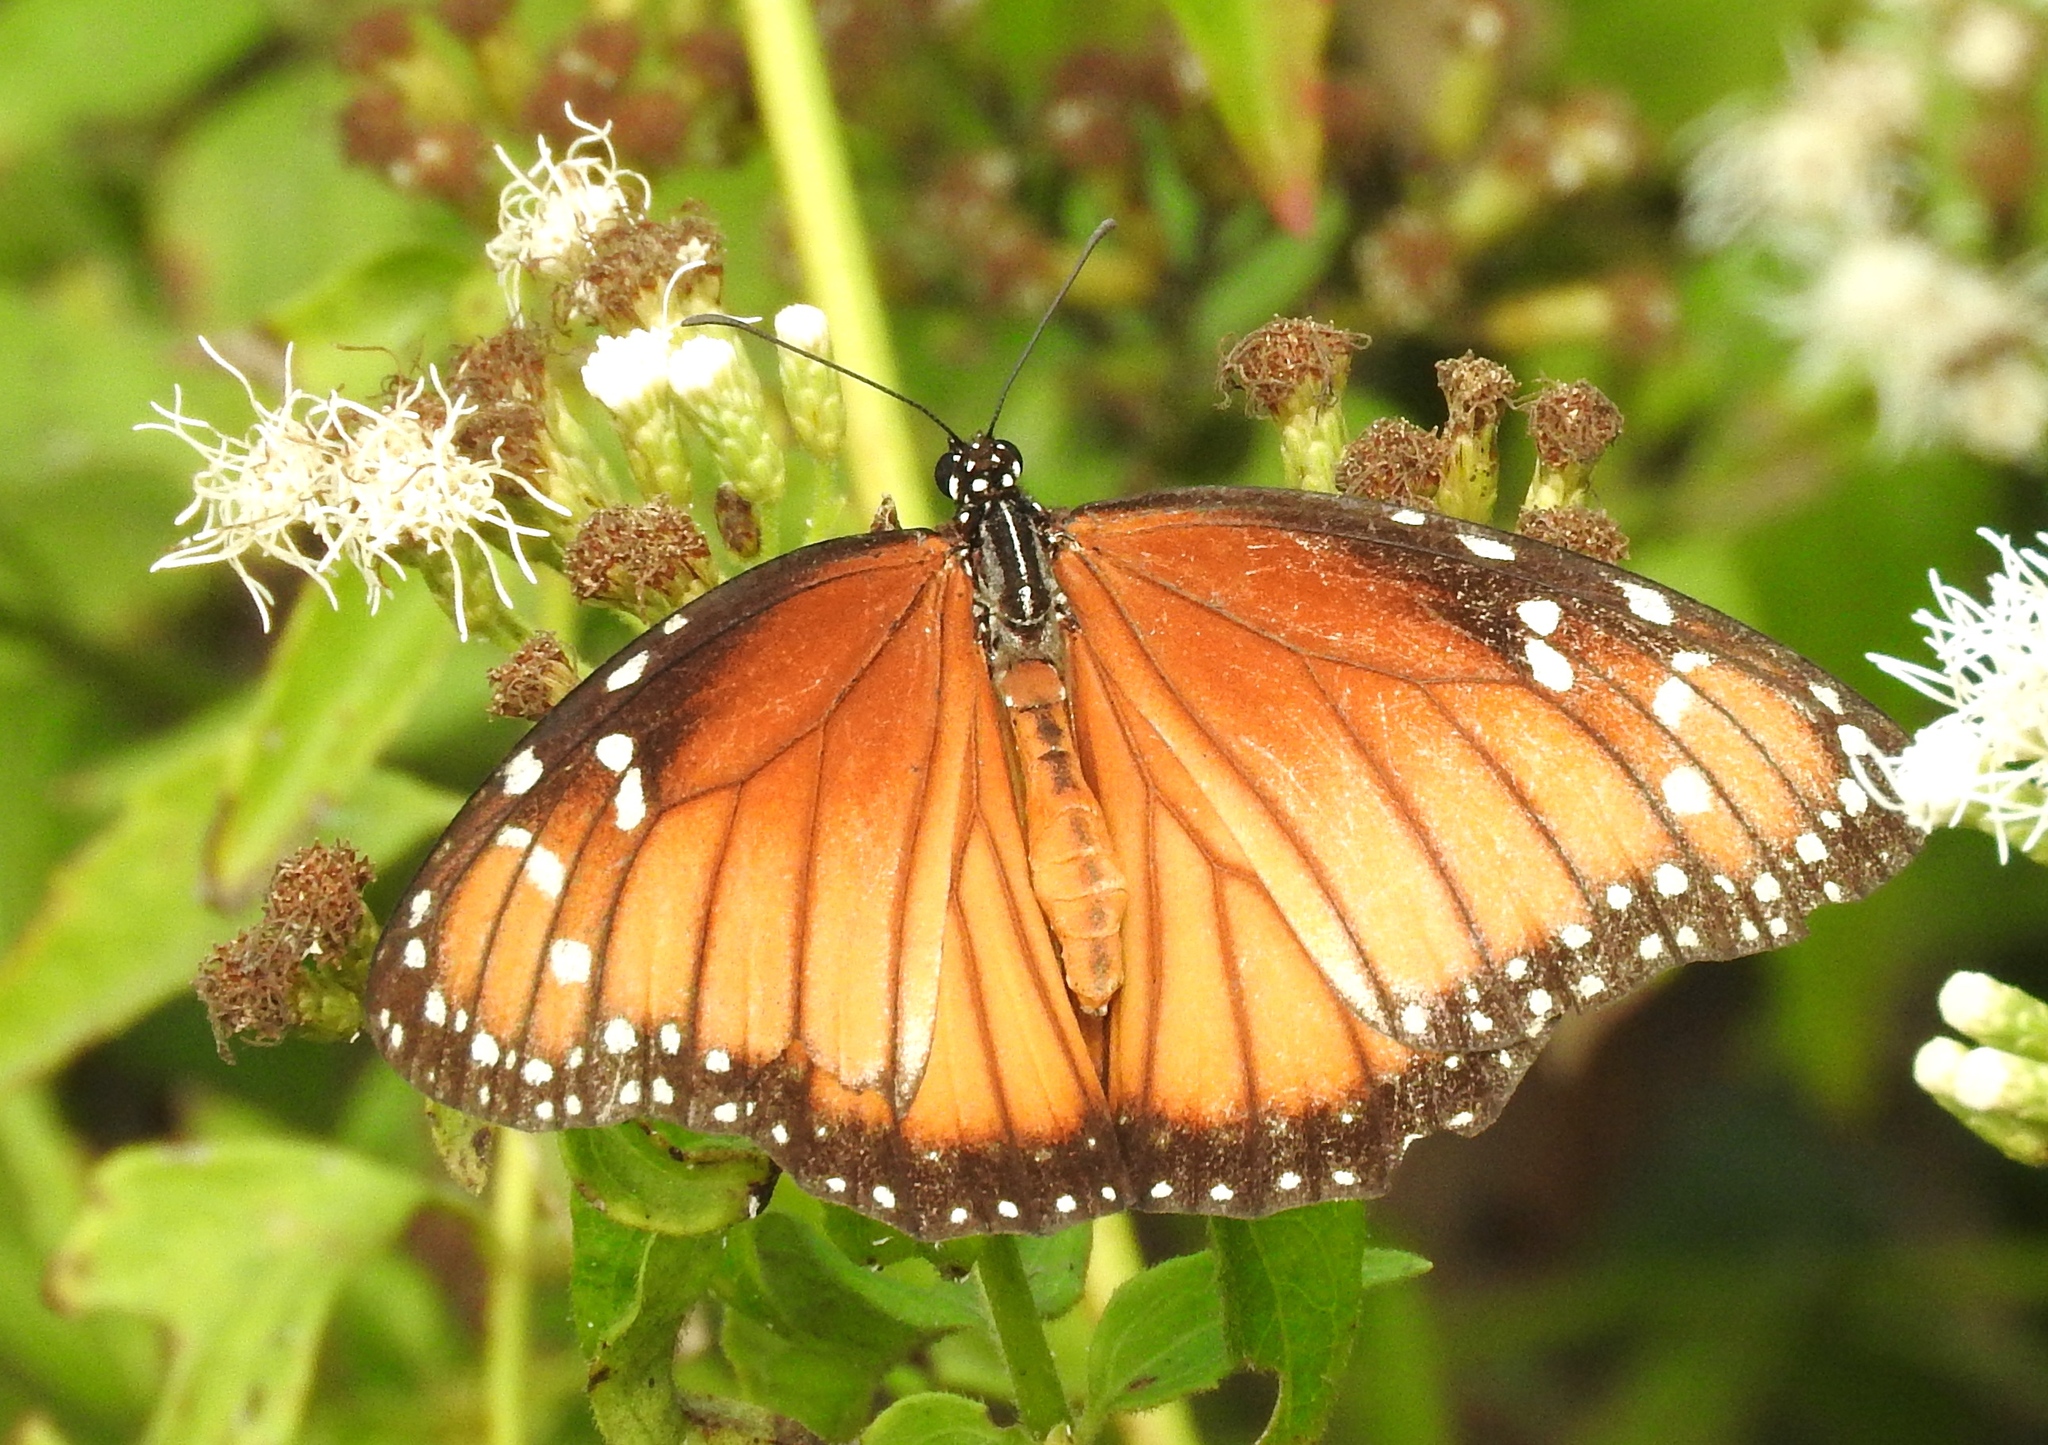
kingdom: Animalia
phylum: Arthropoda
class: Insecta
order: Lepidoptera
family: Nymphalidae
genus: Danaus
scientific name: Danaus eresimus
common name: Soldier
